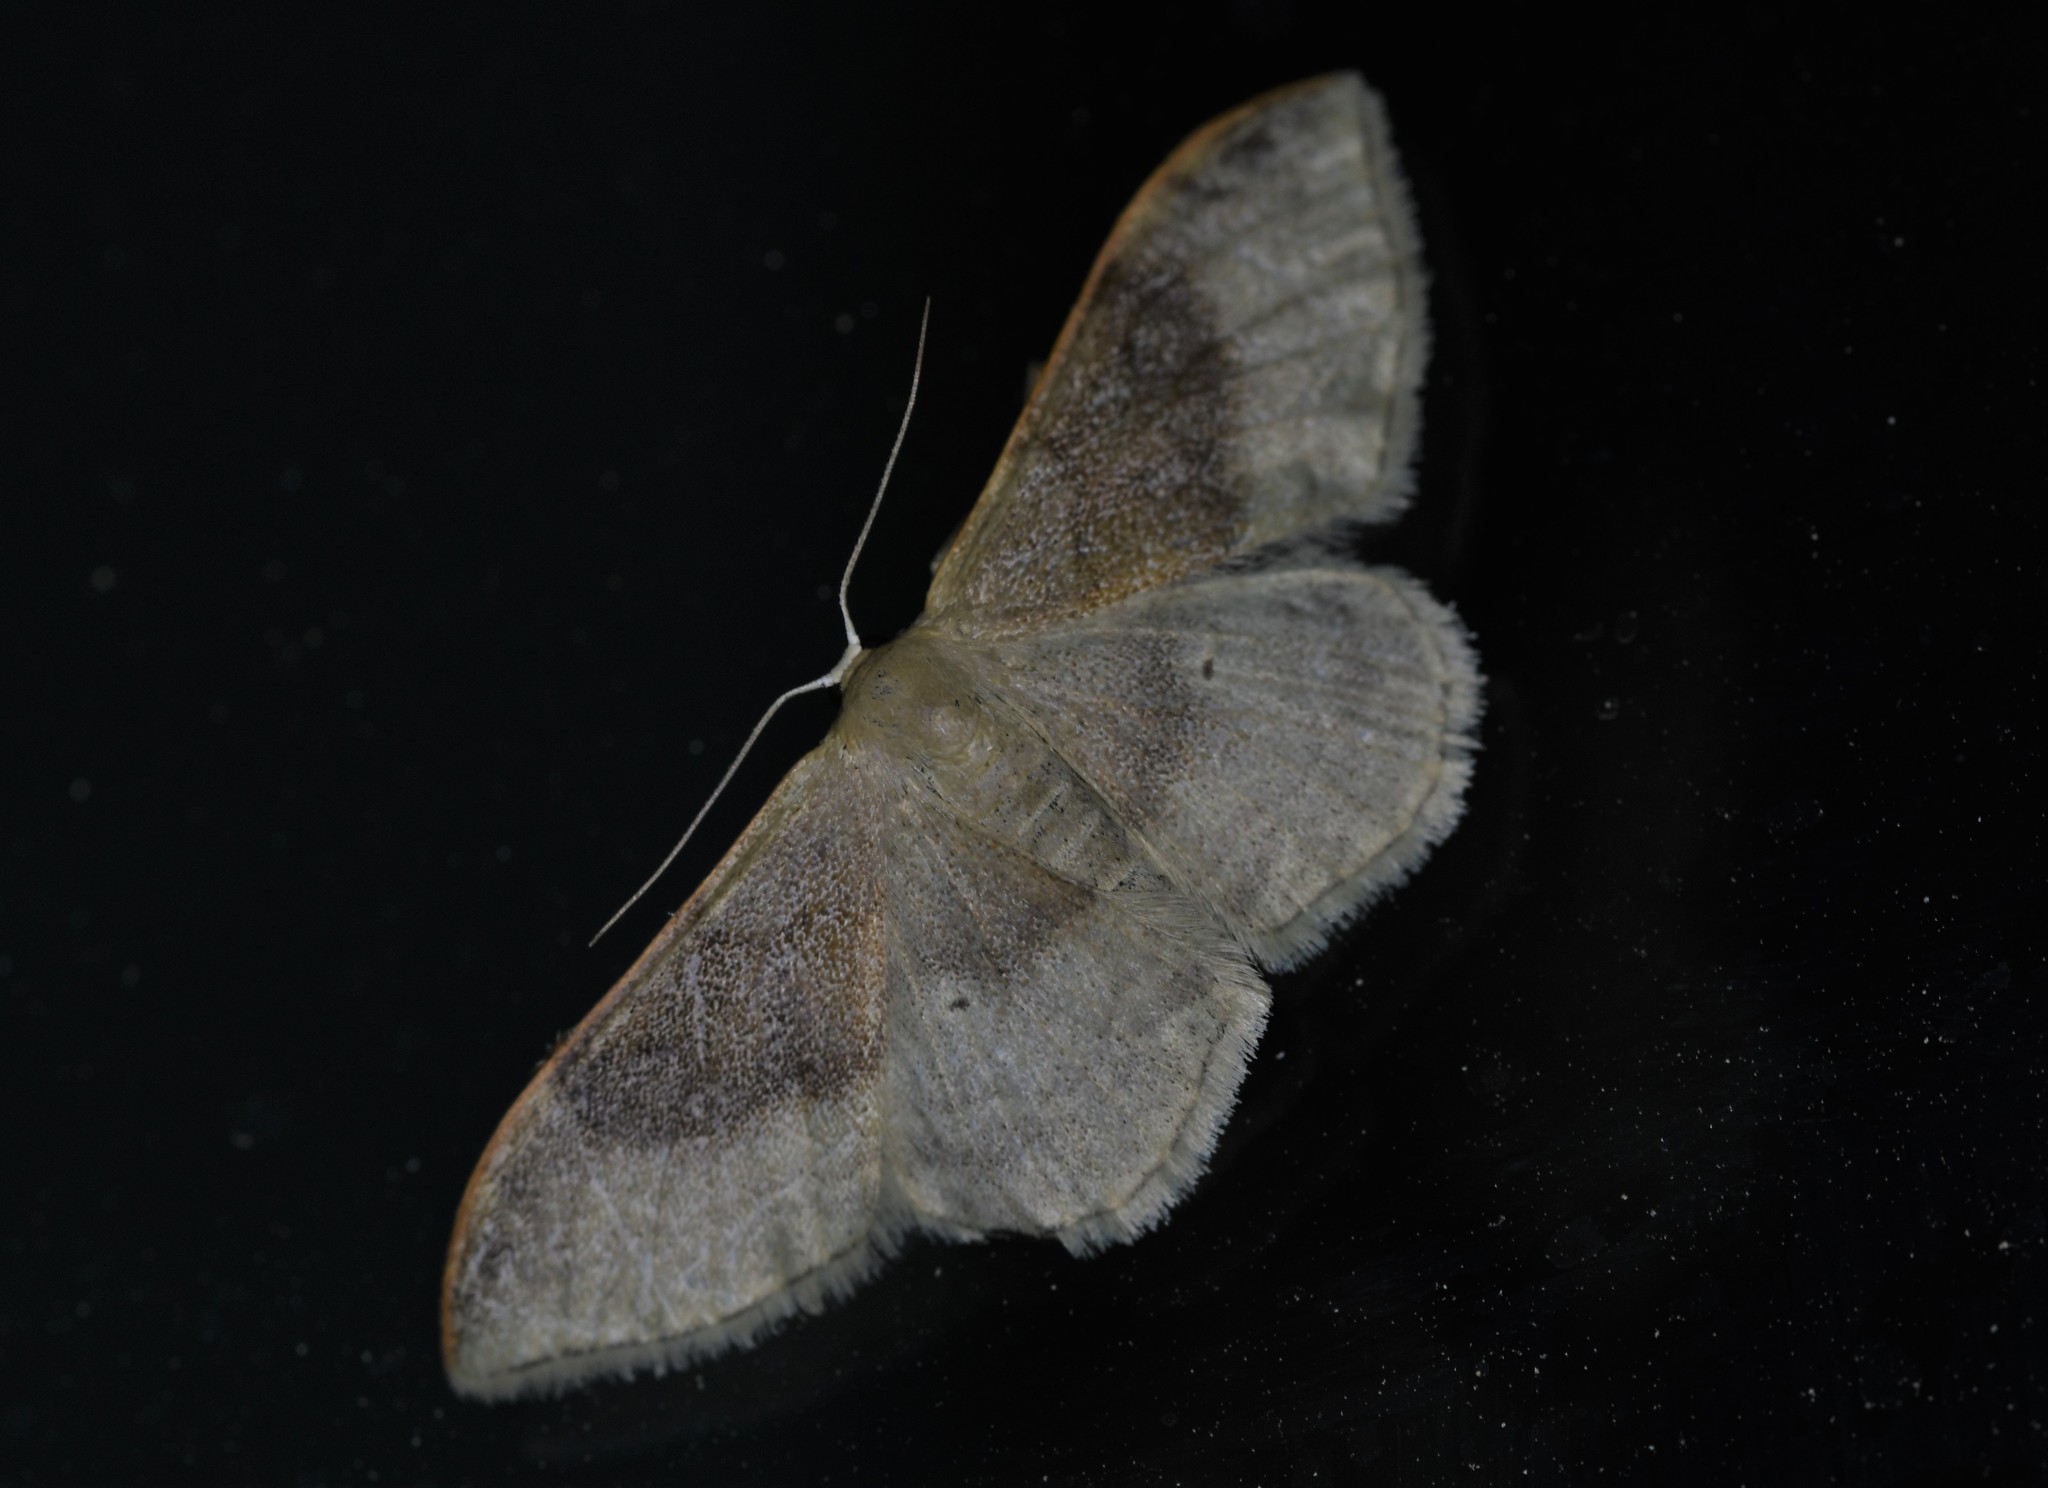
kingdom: Animalia
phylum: Arthropoda
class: Insecta
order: Lepidoptera
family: Geometridae
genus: Idaea
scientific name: Idaea degeneraria
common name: Portland ribbon wave
